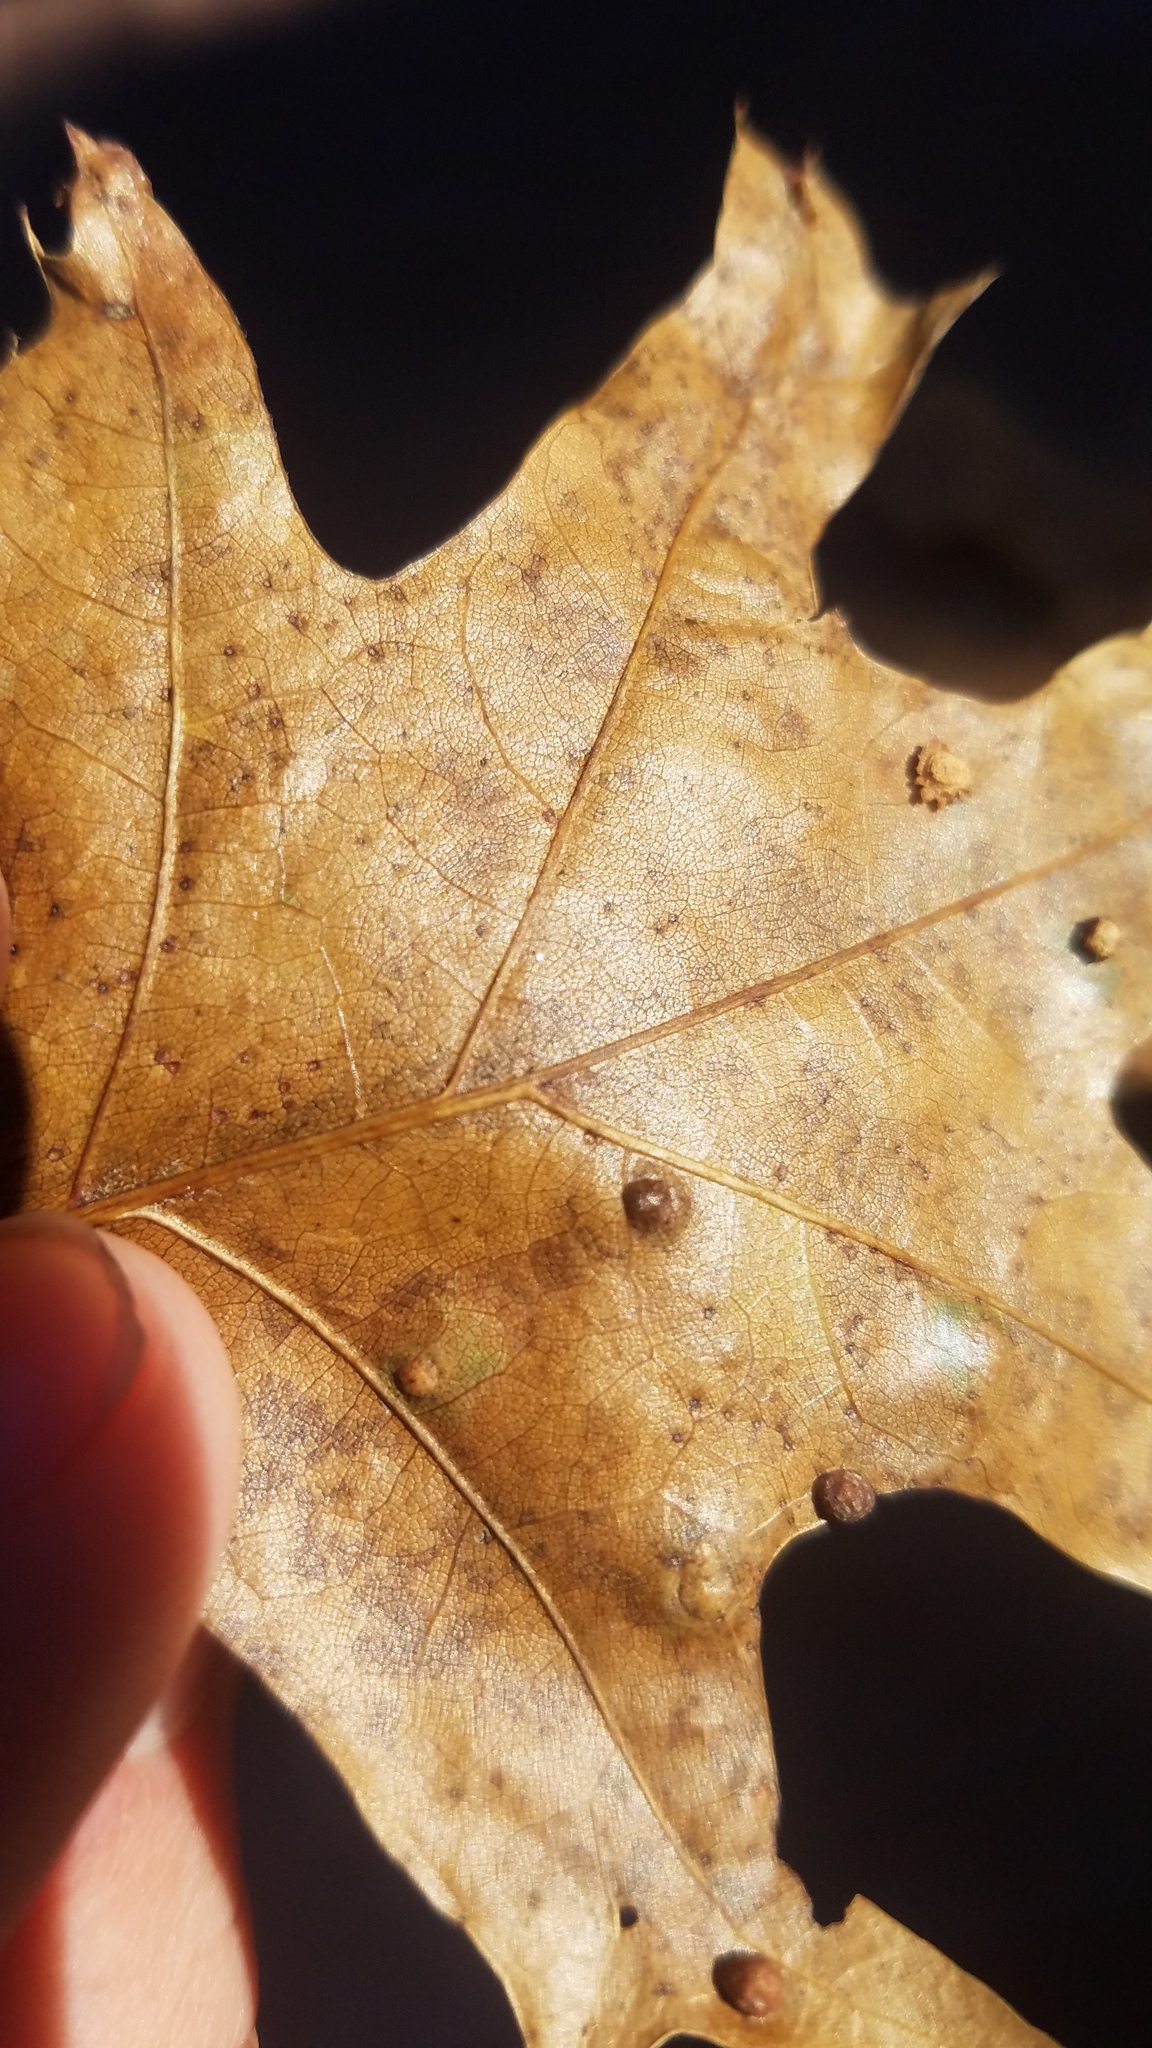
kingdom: Animalia
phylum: Arthropoda
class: Insecta
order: Diptera
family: Cecidomyiidae
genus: Polystepha
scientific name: Polystepha globosa
